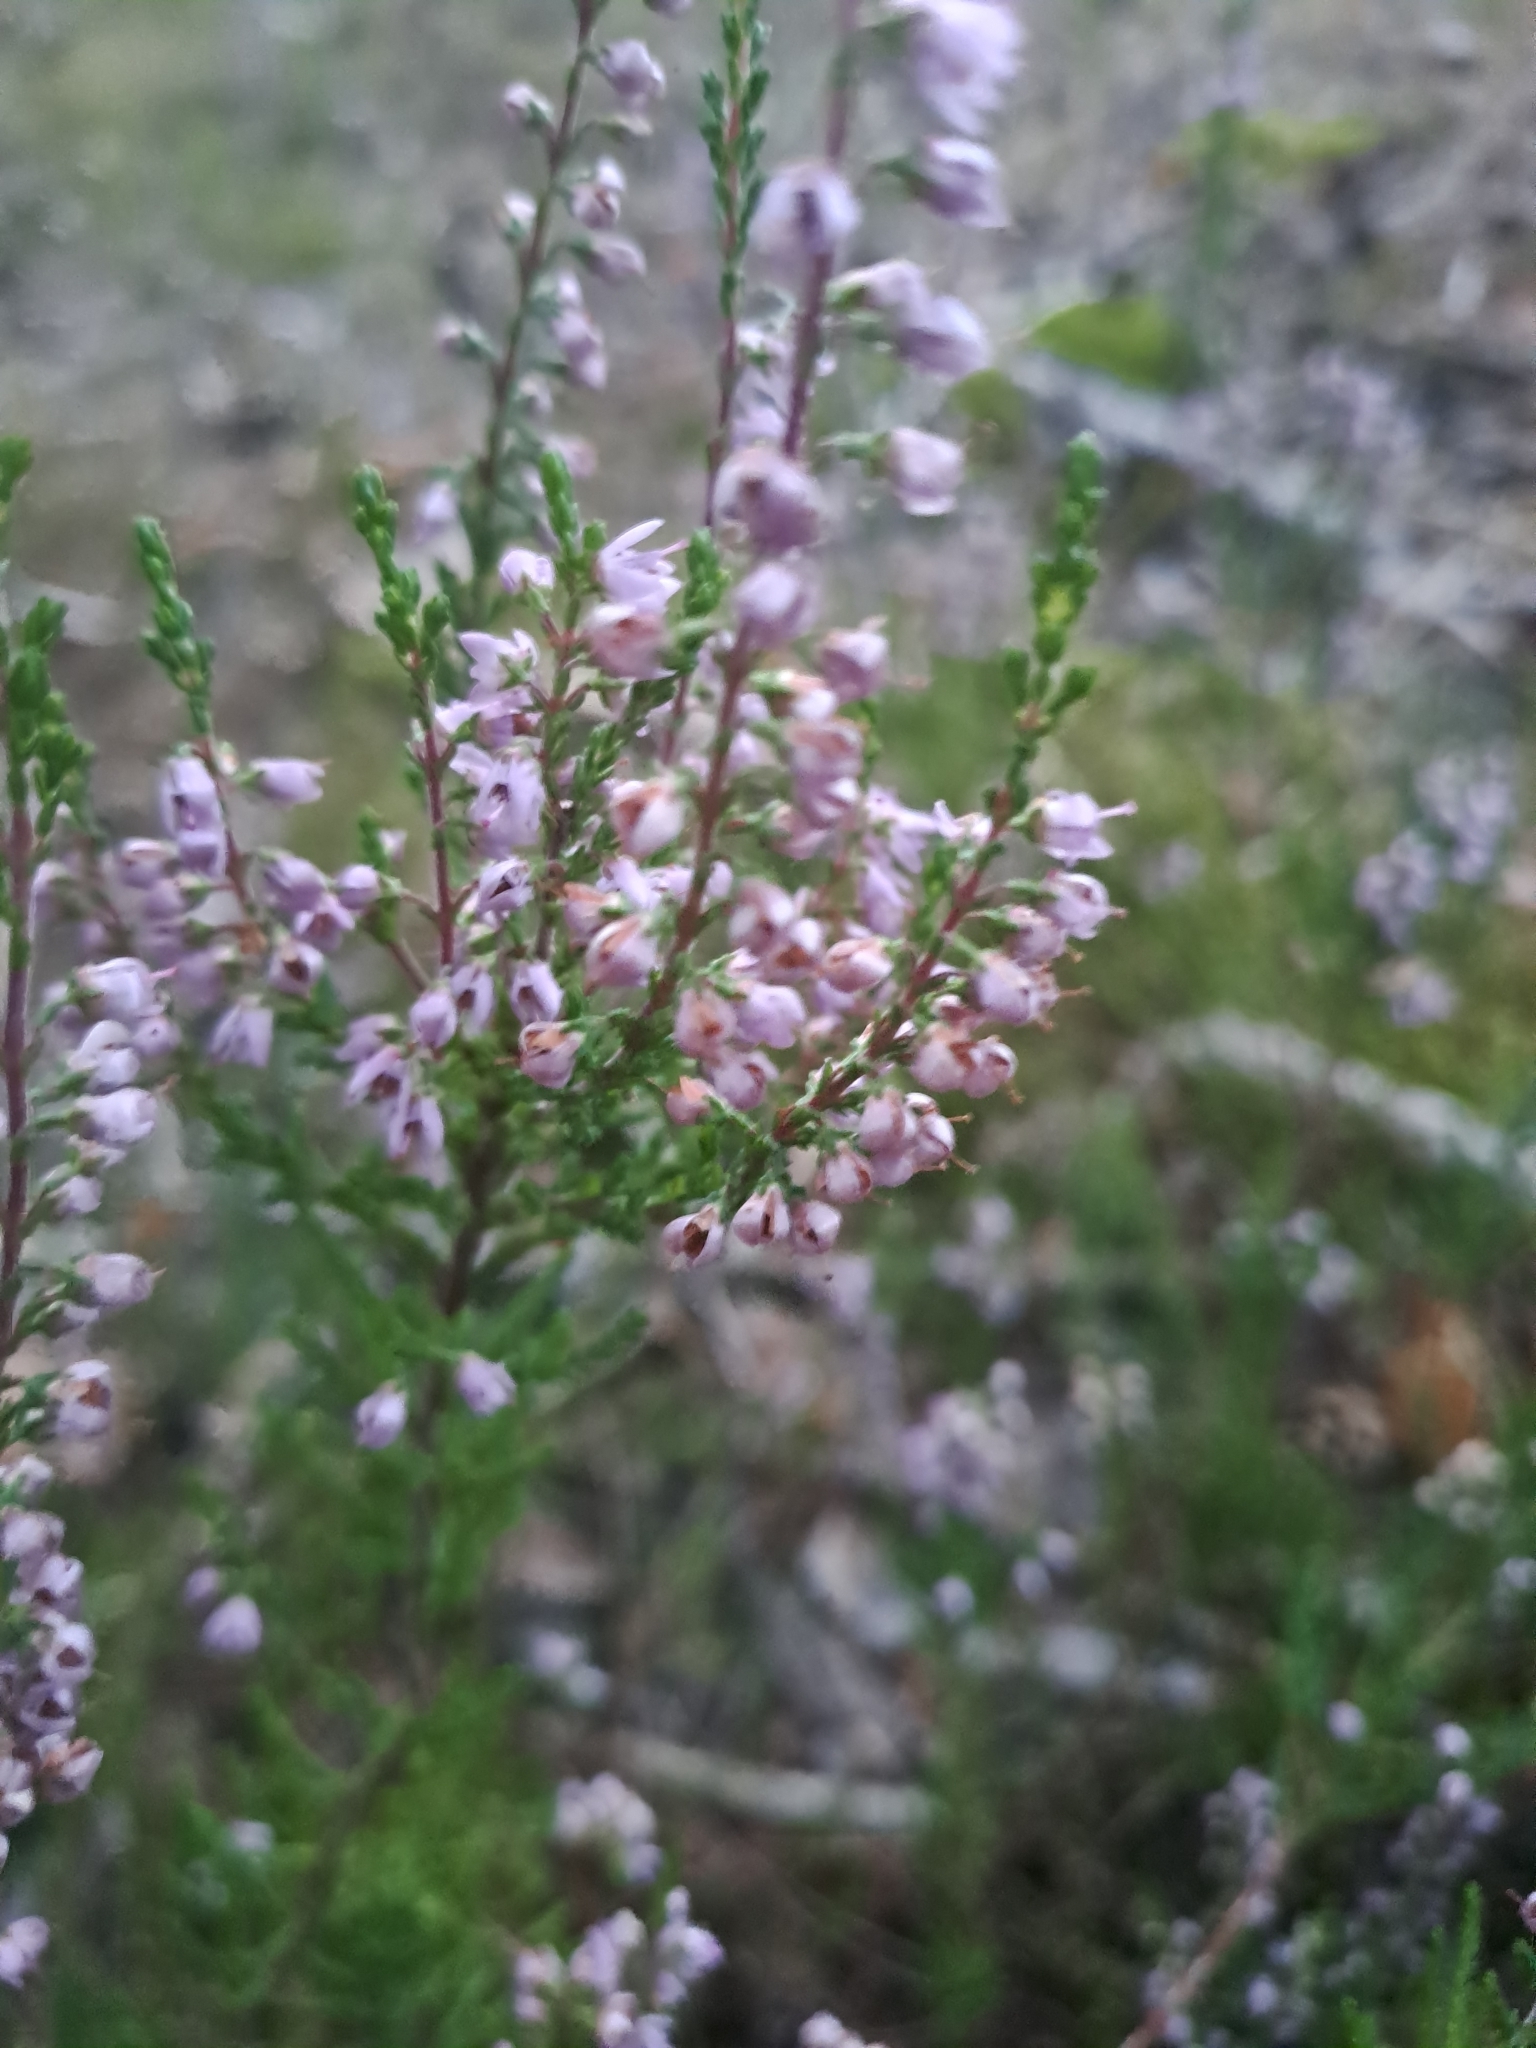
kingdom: Plantae
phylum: Tracheophyta
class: Magnoliopsida
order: Ericales
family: Ericaceae
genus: Calluna
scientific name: Calluna vulgaris
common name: Heather
